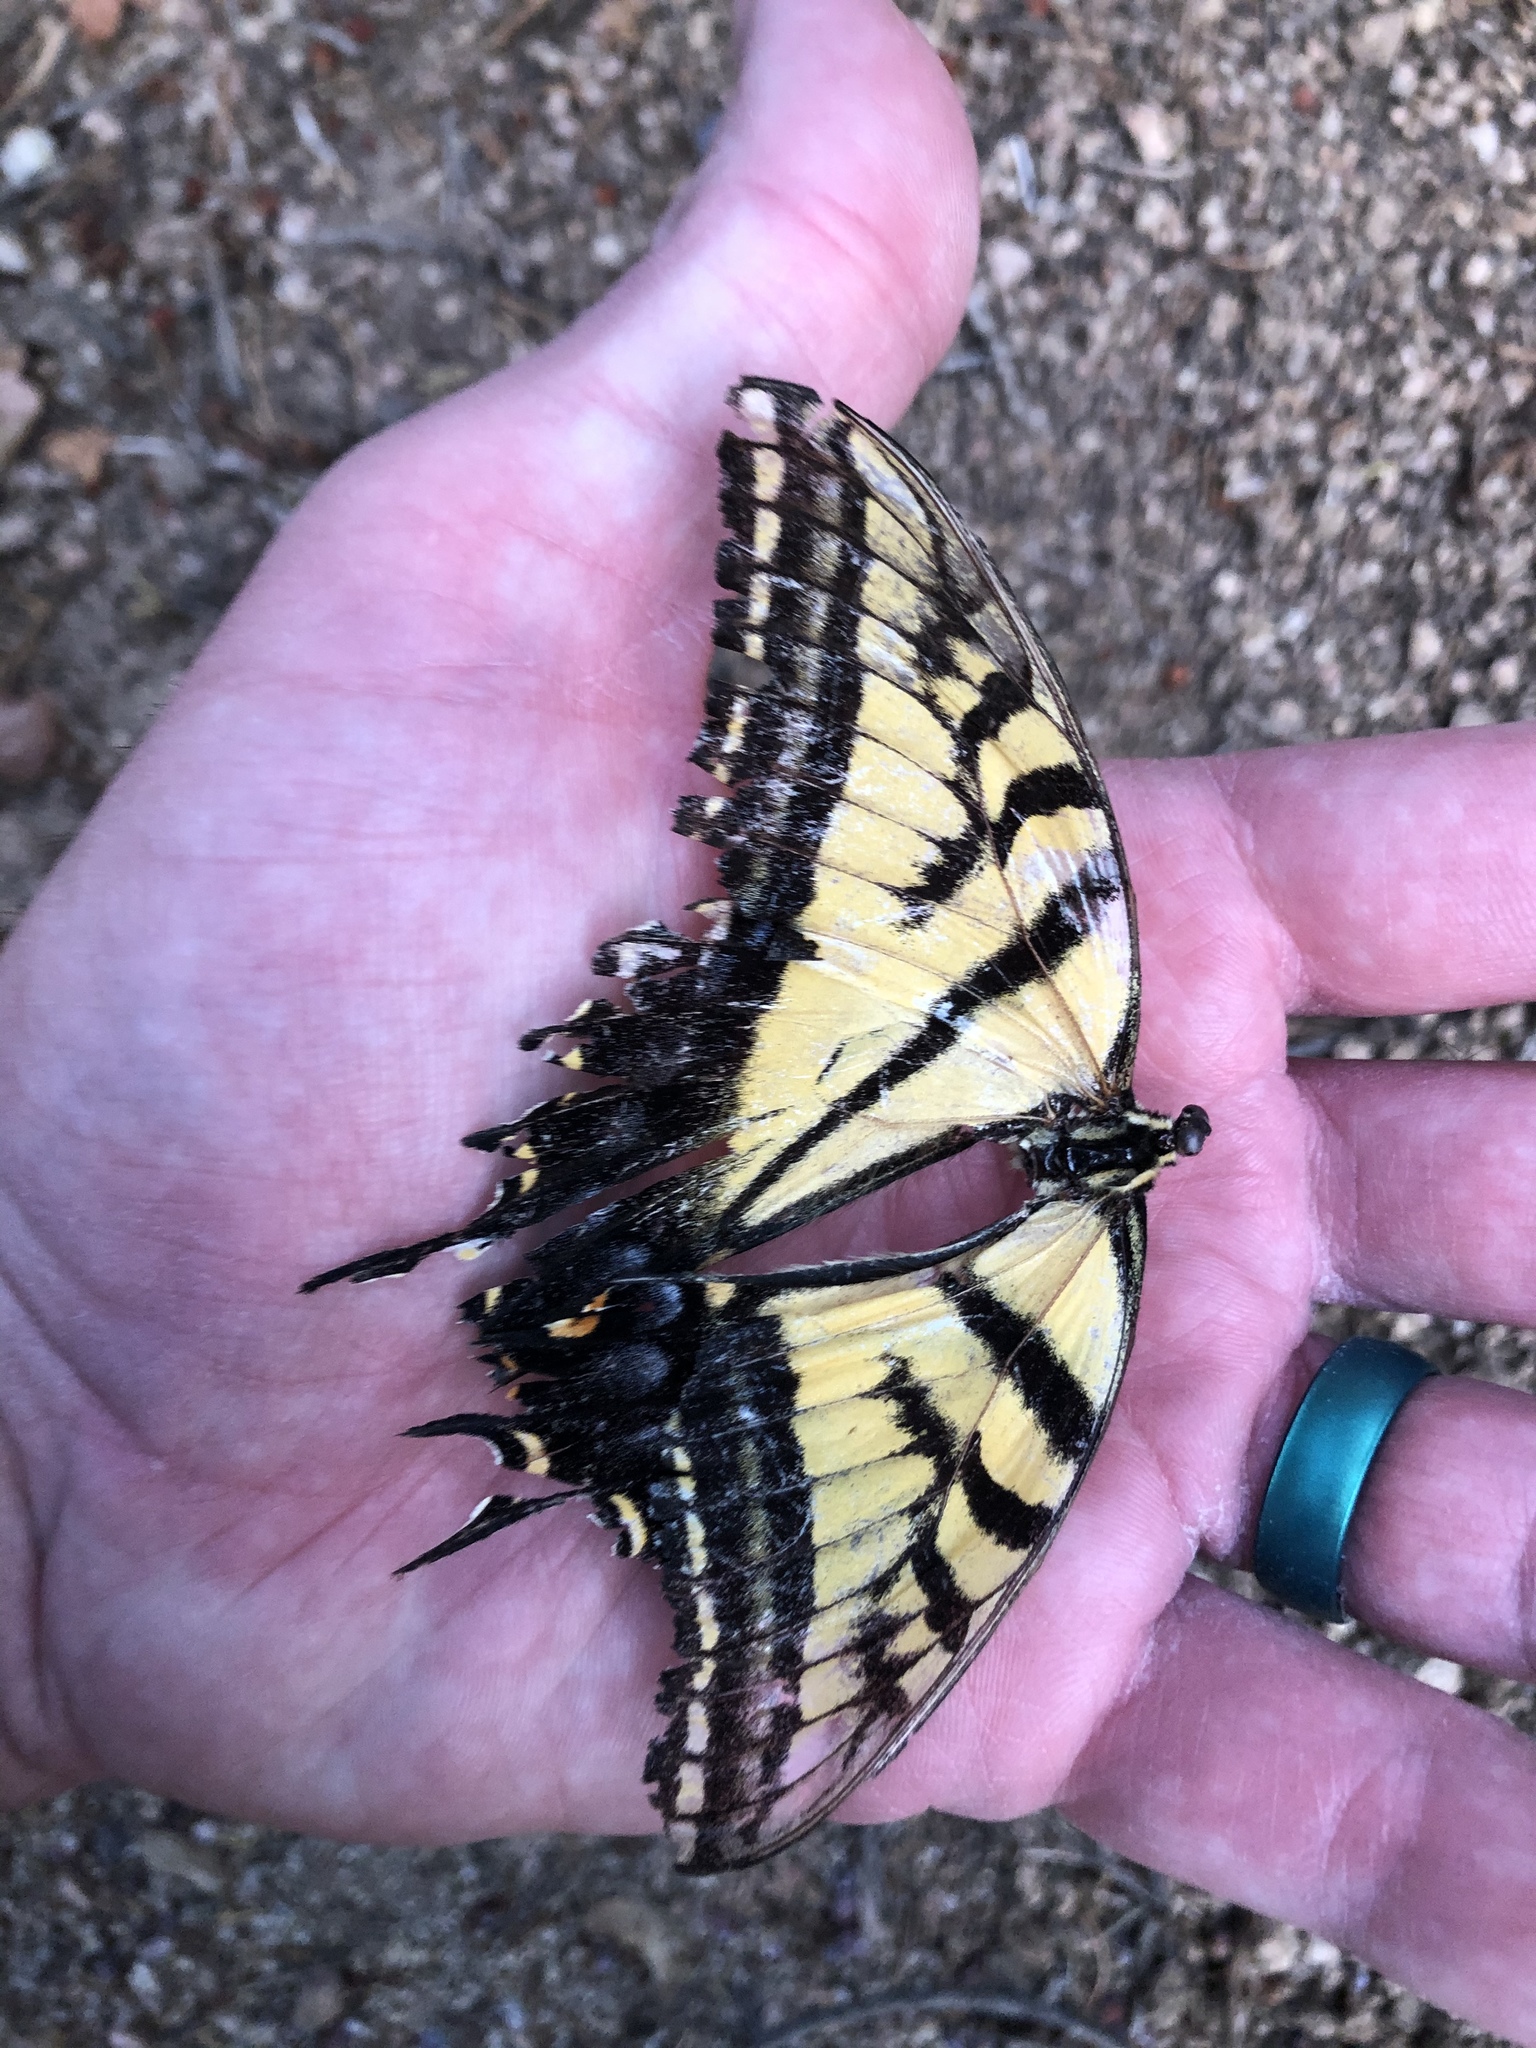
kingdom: Animalia
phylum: Arthropoda
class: Insecta
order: Lepidoptera
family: Papilionidae
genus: Papilio
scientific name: Papilio multicaudata
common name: Two-tailed tiger swallowtail
